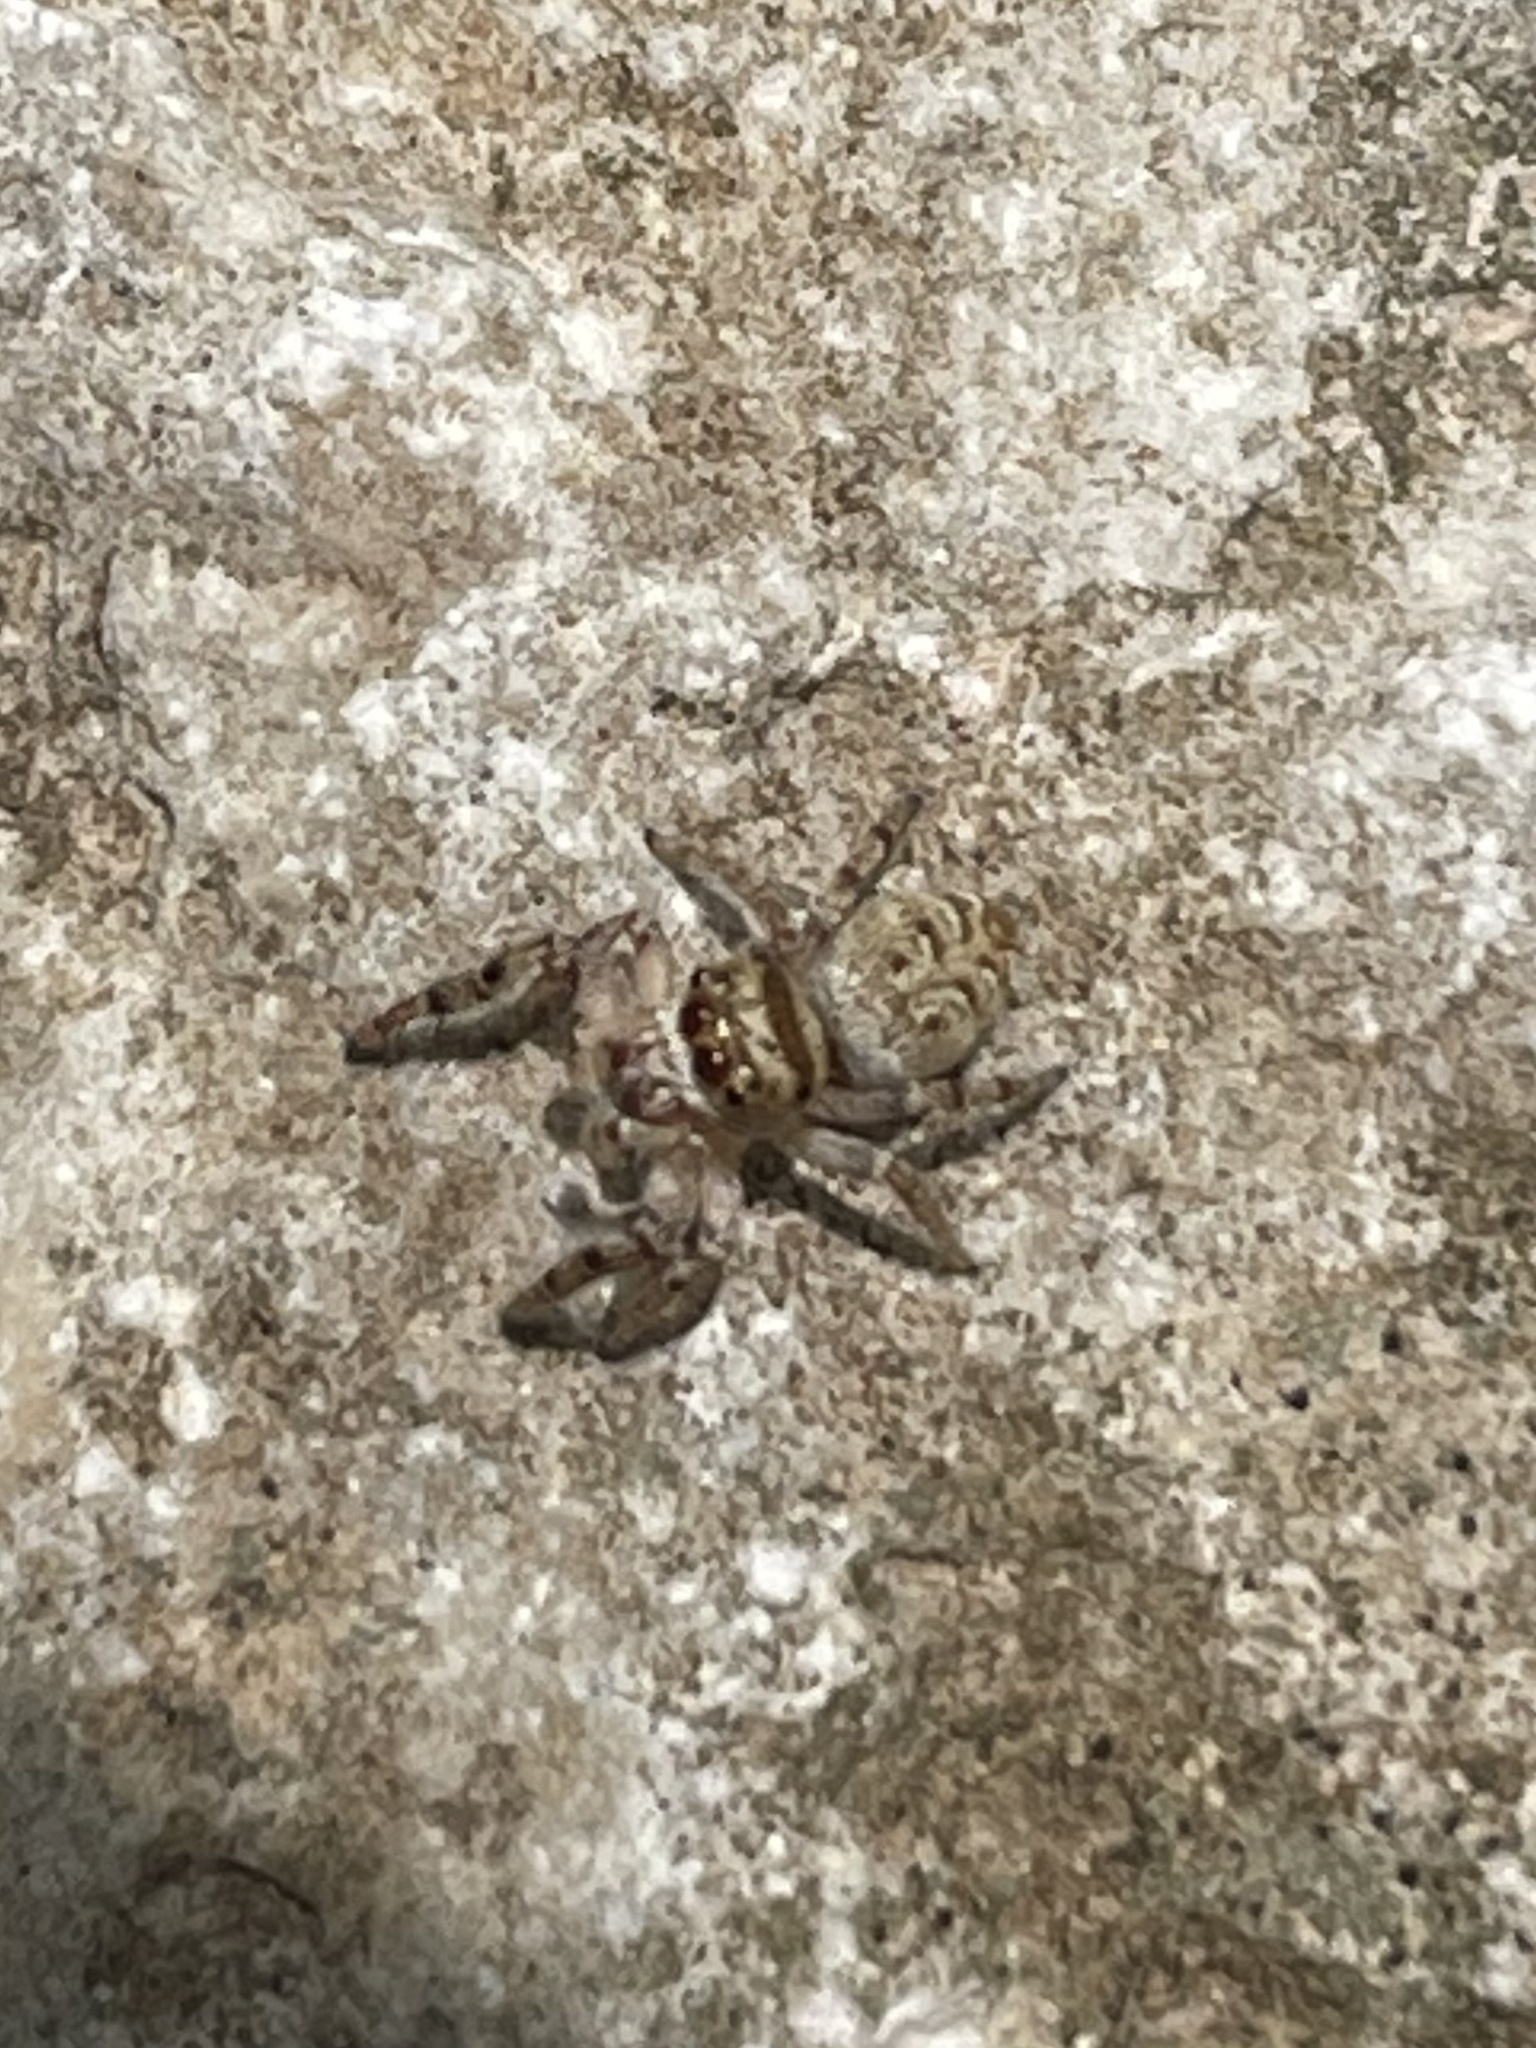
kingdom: Animalia
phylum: Arthropoda
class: Arachnida
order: Araneae
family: Salticidae
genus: Eris
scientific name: Eris militaris
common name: Bronze jumper
